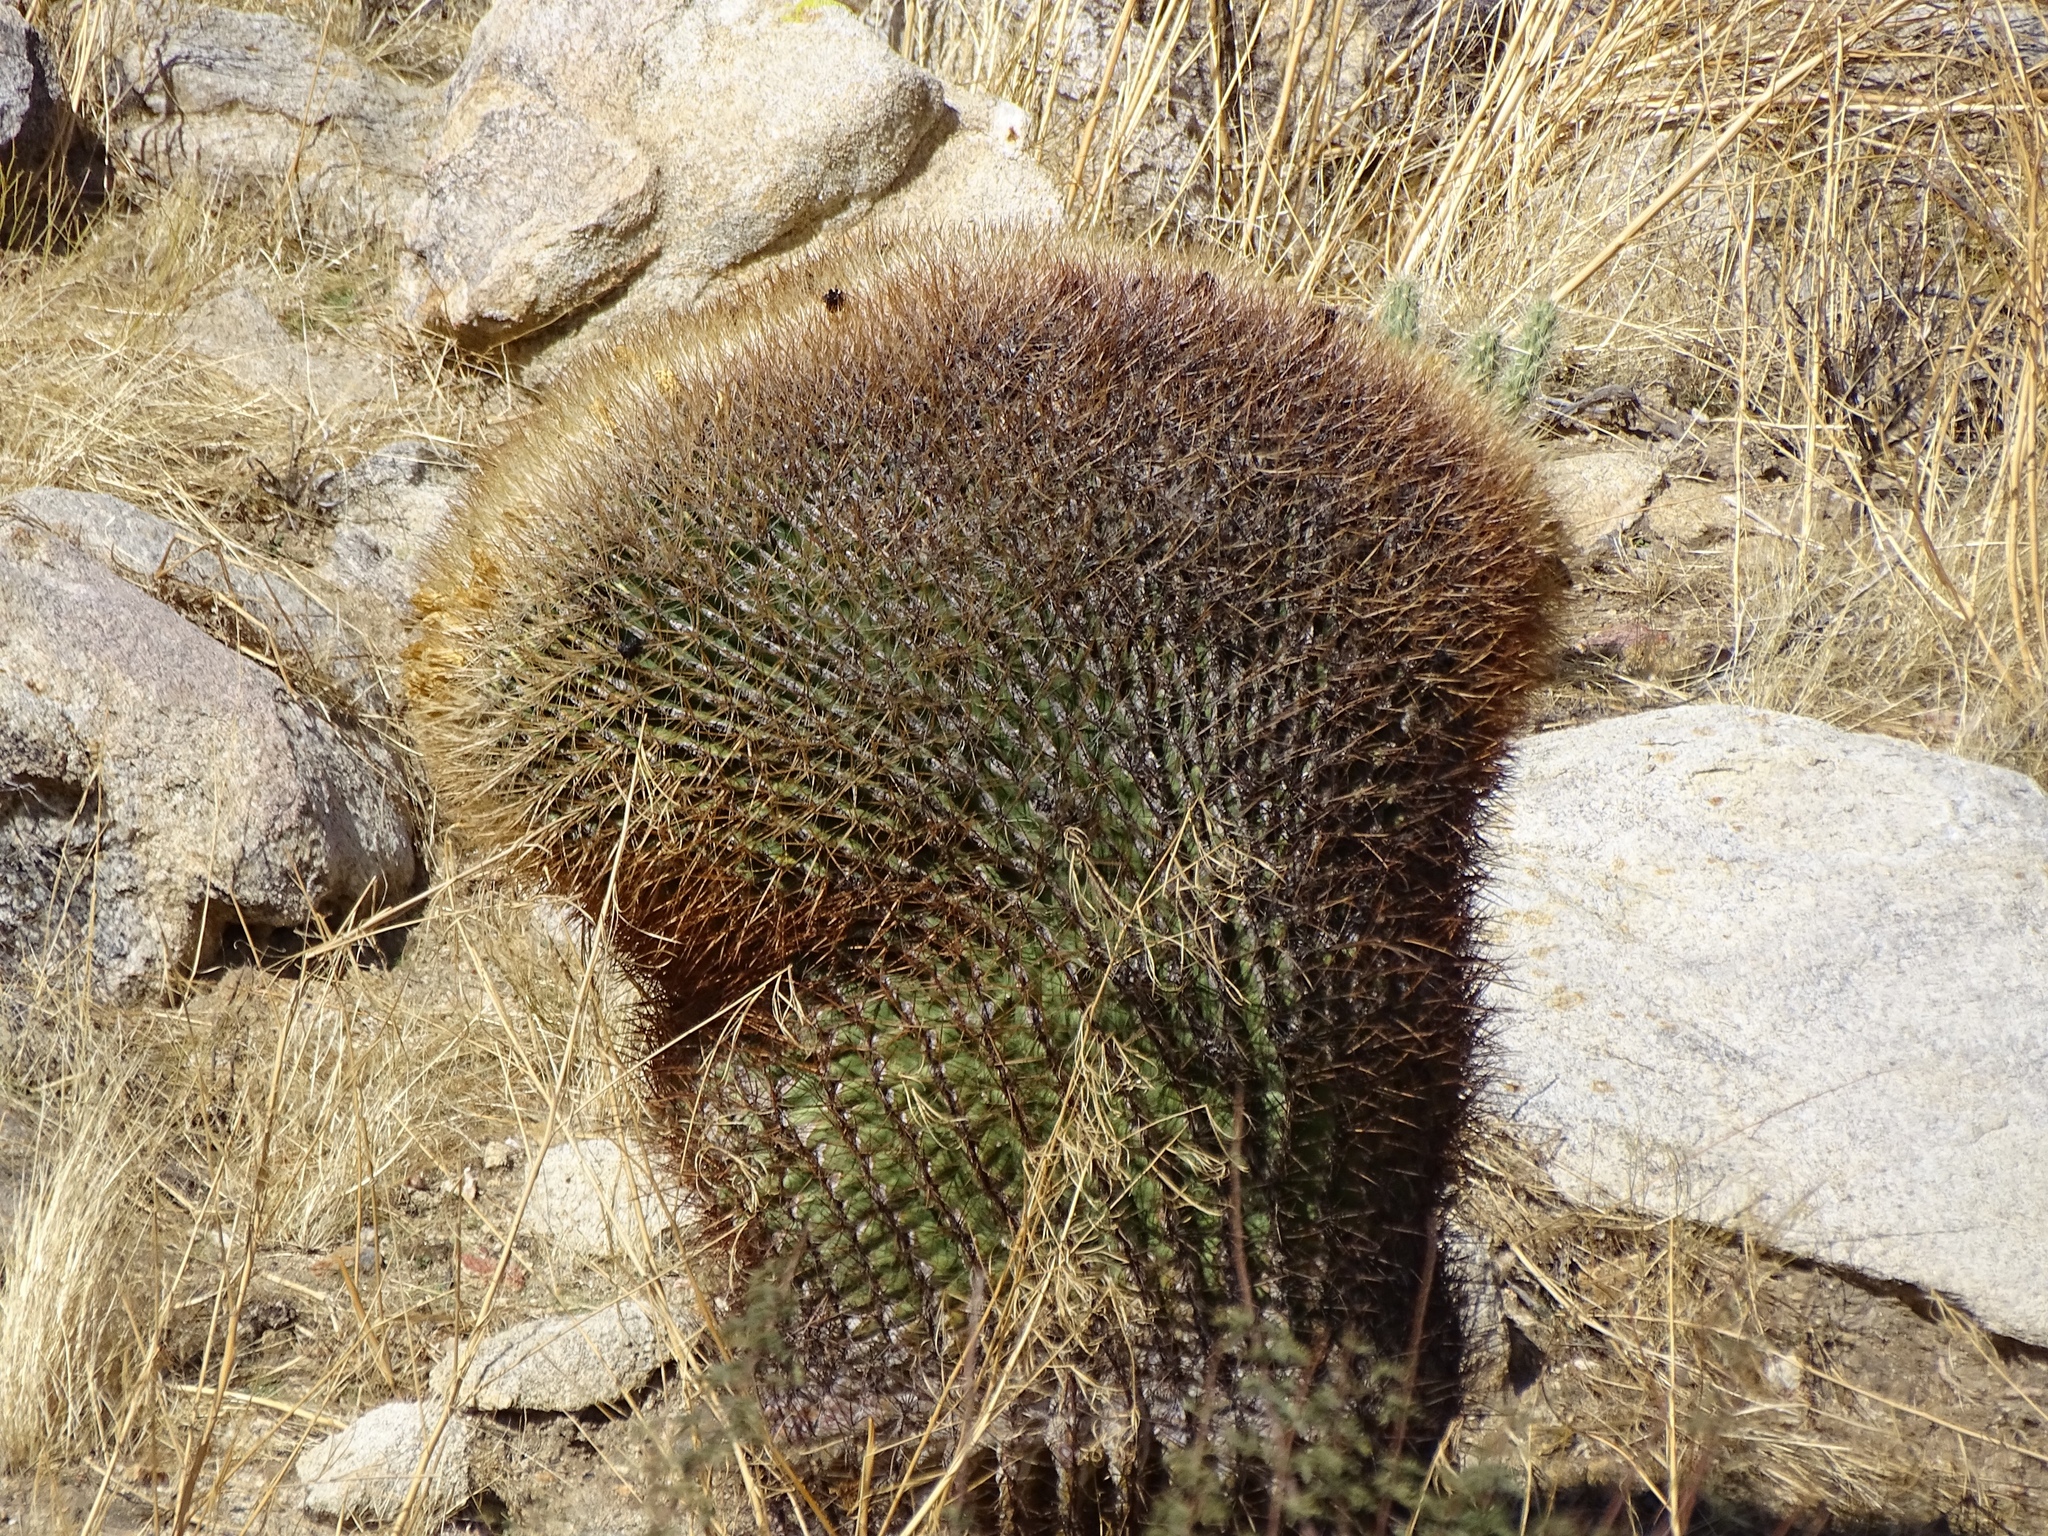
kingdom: Plantae
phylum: Tracheophyta
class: Magnoliopsida
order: Caryophyllales
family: Cactaceae
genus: Ferocactus
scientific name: Ferocactus cylindraceus
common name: California barrel cactus
